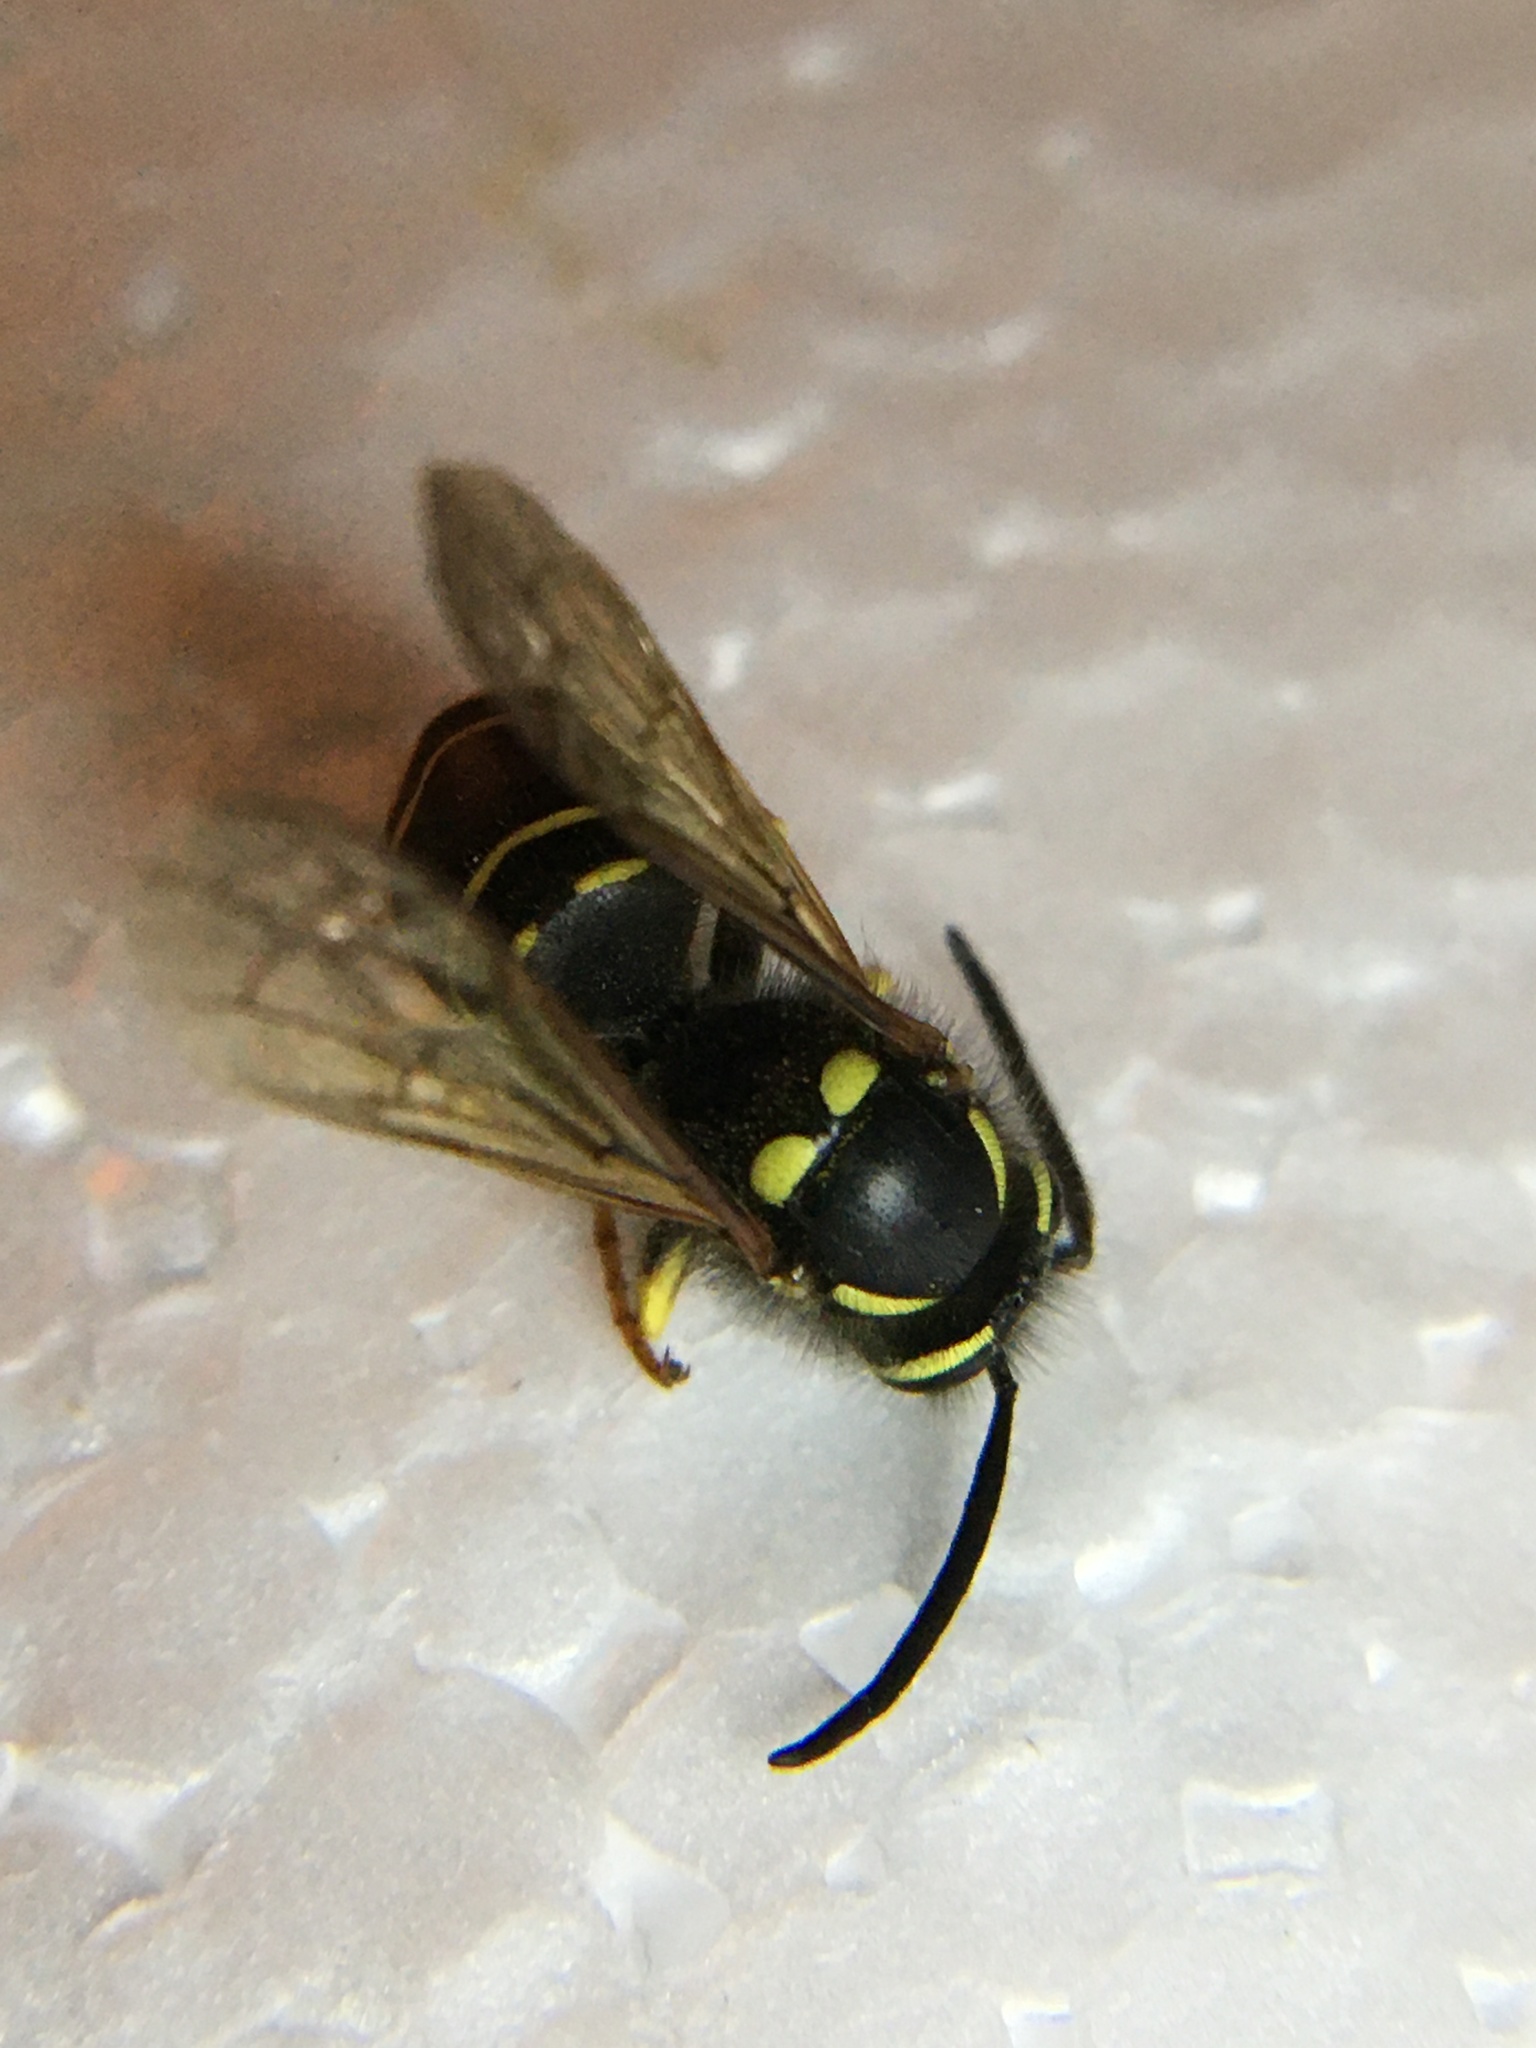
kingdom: Animalia
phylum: Arthropoda
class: Insecta
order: Hymenoptera
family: Vespidae
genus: Vespula
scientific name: Vespula vidua
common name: Widow yellowjacket
